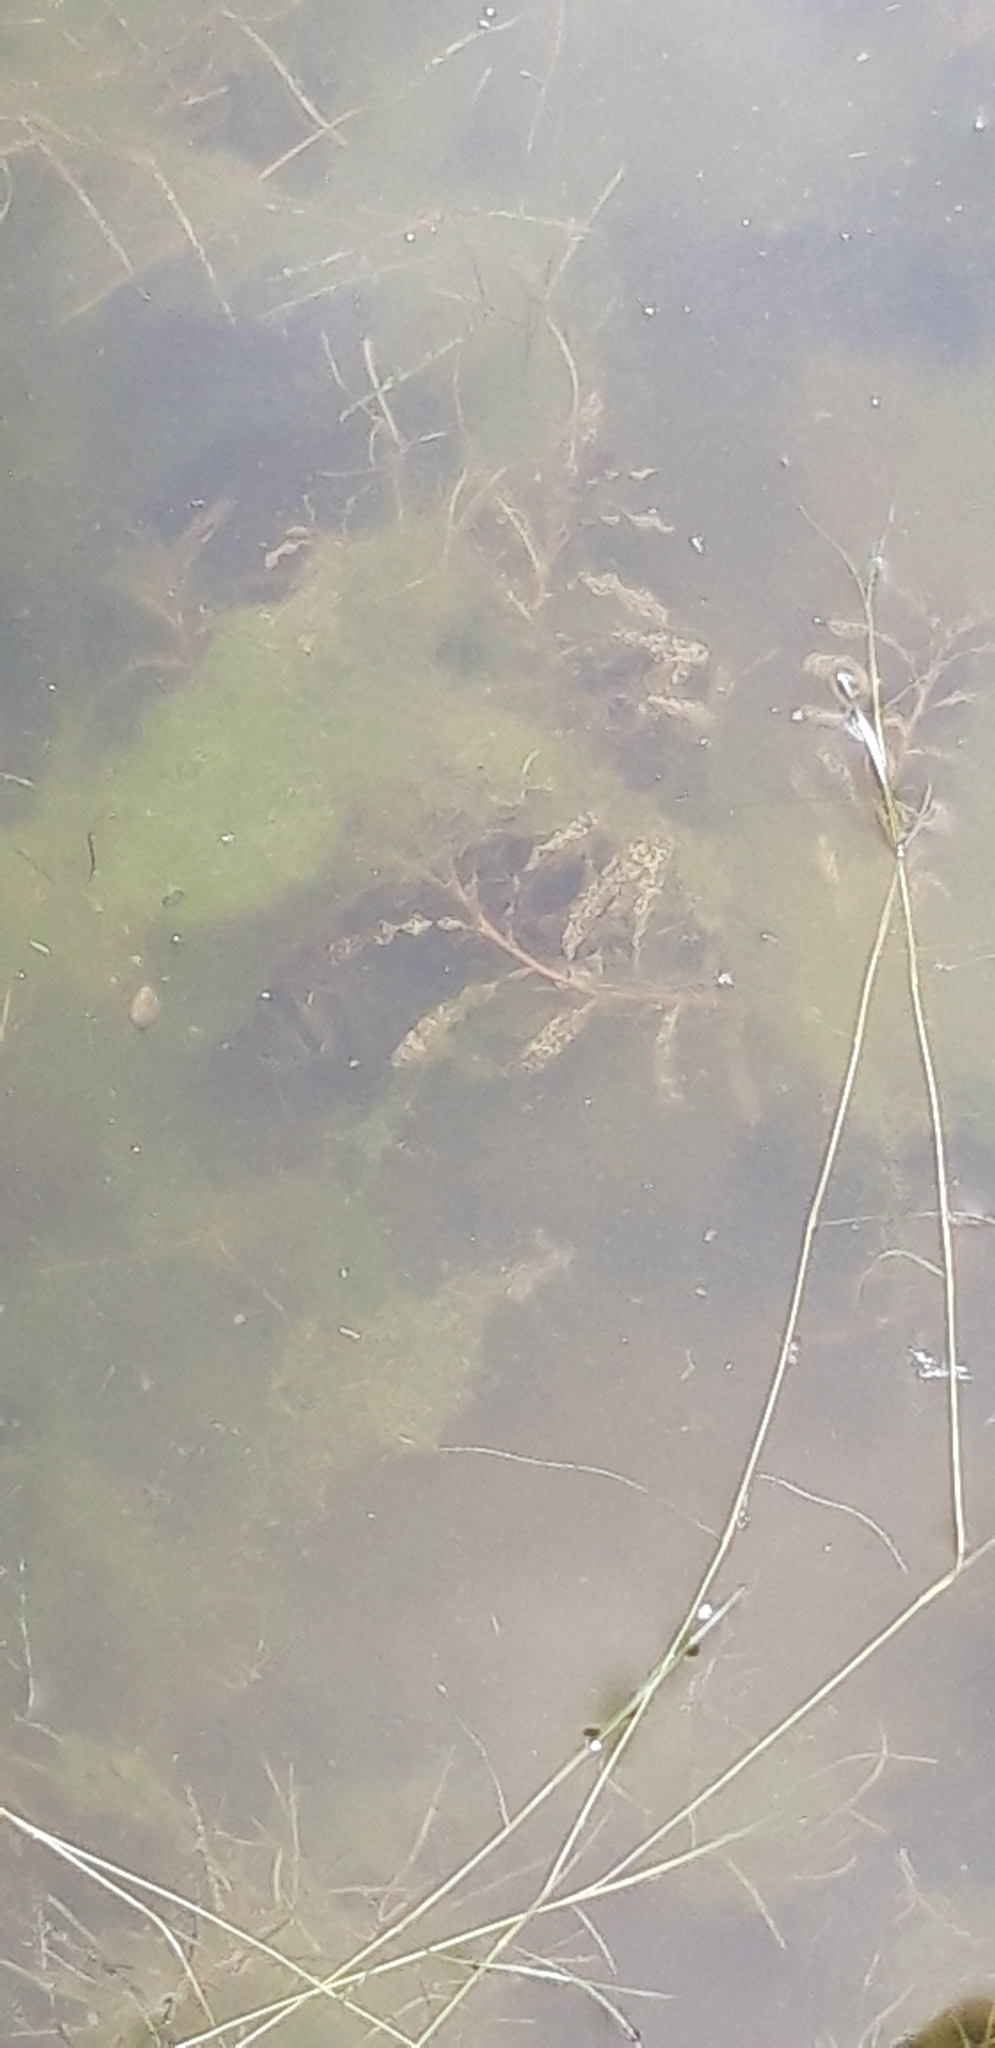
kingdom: Plantae
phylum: Tracheophyta
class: Liliopsida
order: Alismatales
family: Potamogetonaceae
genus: Potamogeton
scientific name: Potamogeton crispus
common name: Curled pondweed
